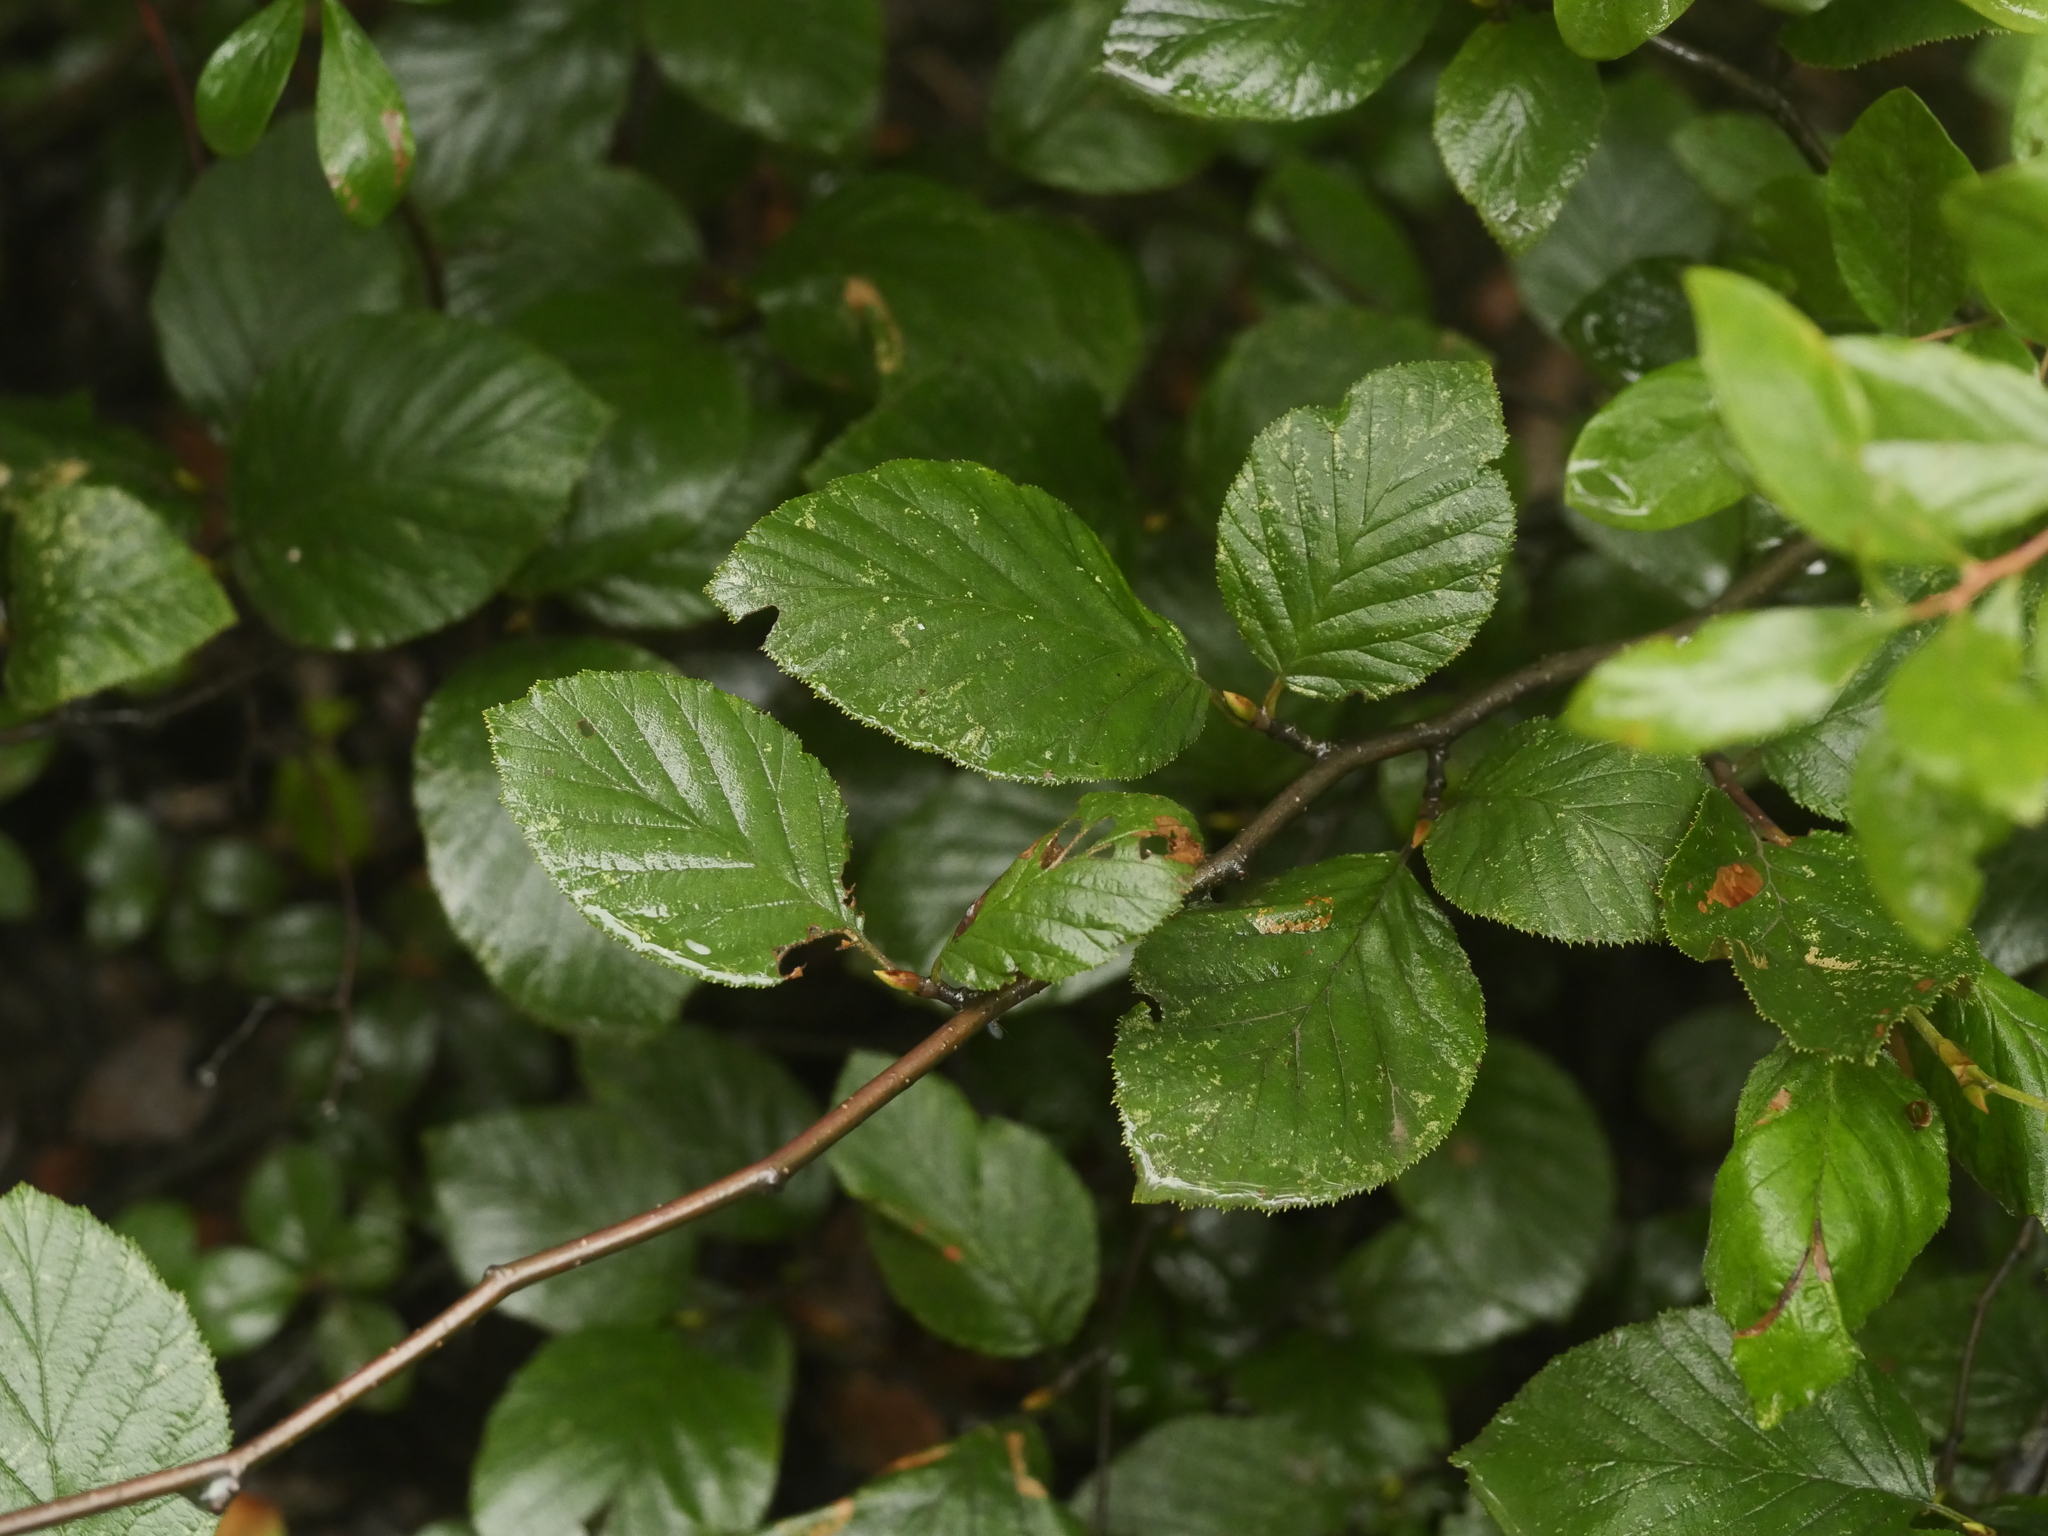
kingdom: Plantae
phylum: Tracheophyta
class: Magnoliopsida
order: Fagales
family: Betulaceae
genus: Alnus
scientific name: Alnus alnobetula
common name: Green alder
